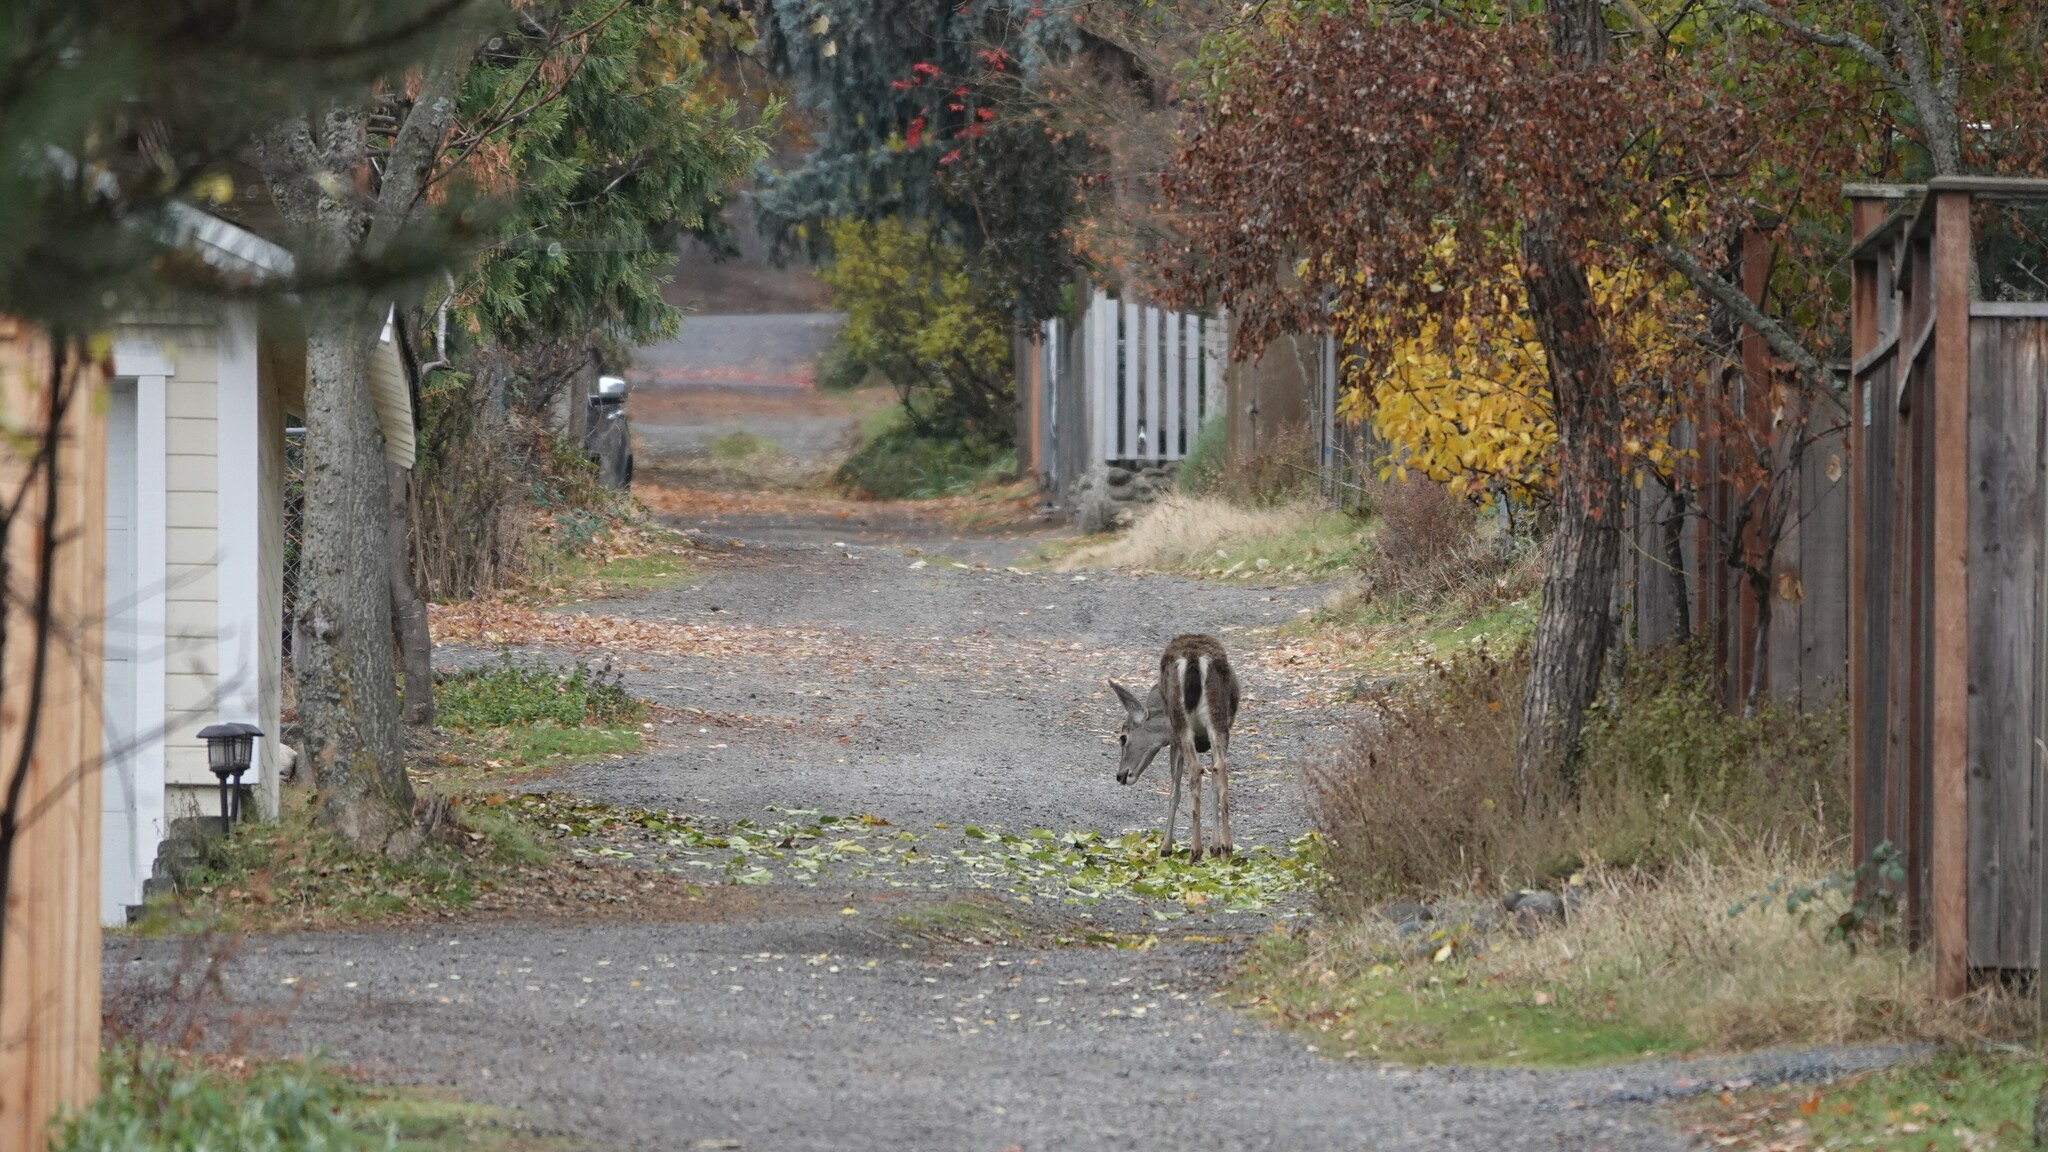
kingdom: Animalia
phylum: Chordata
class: Mammalia
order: Artiodactyla
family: Cervidae
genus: Odocoileus
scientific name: Odocoileus hemionus
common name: Mule deer
